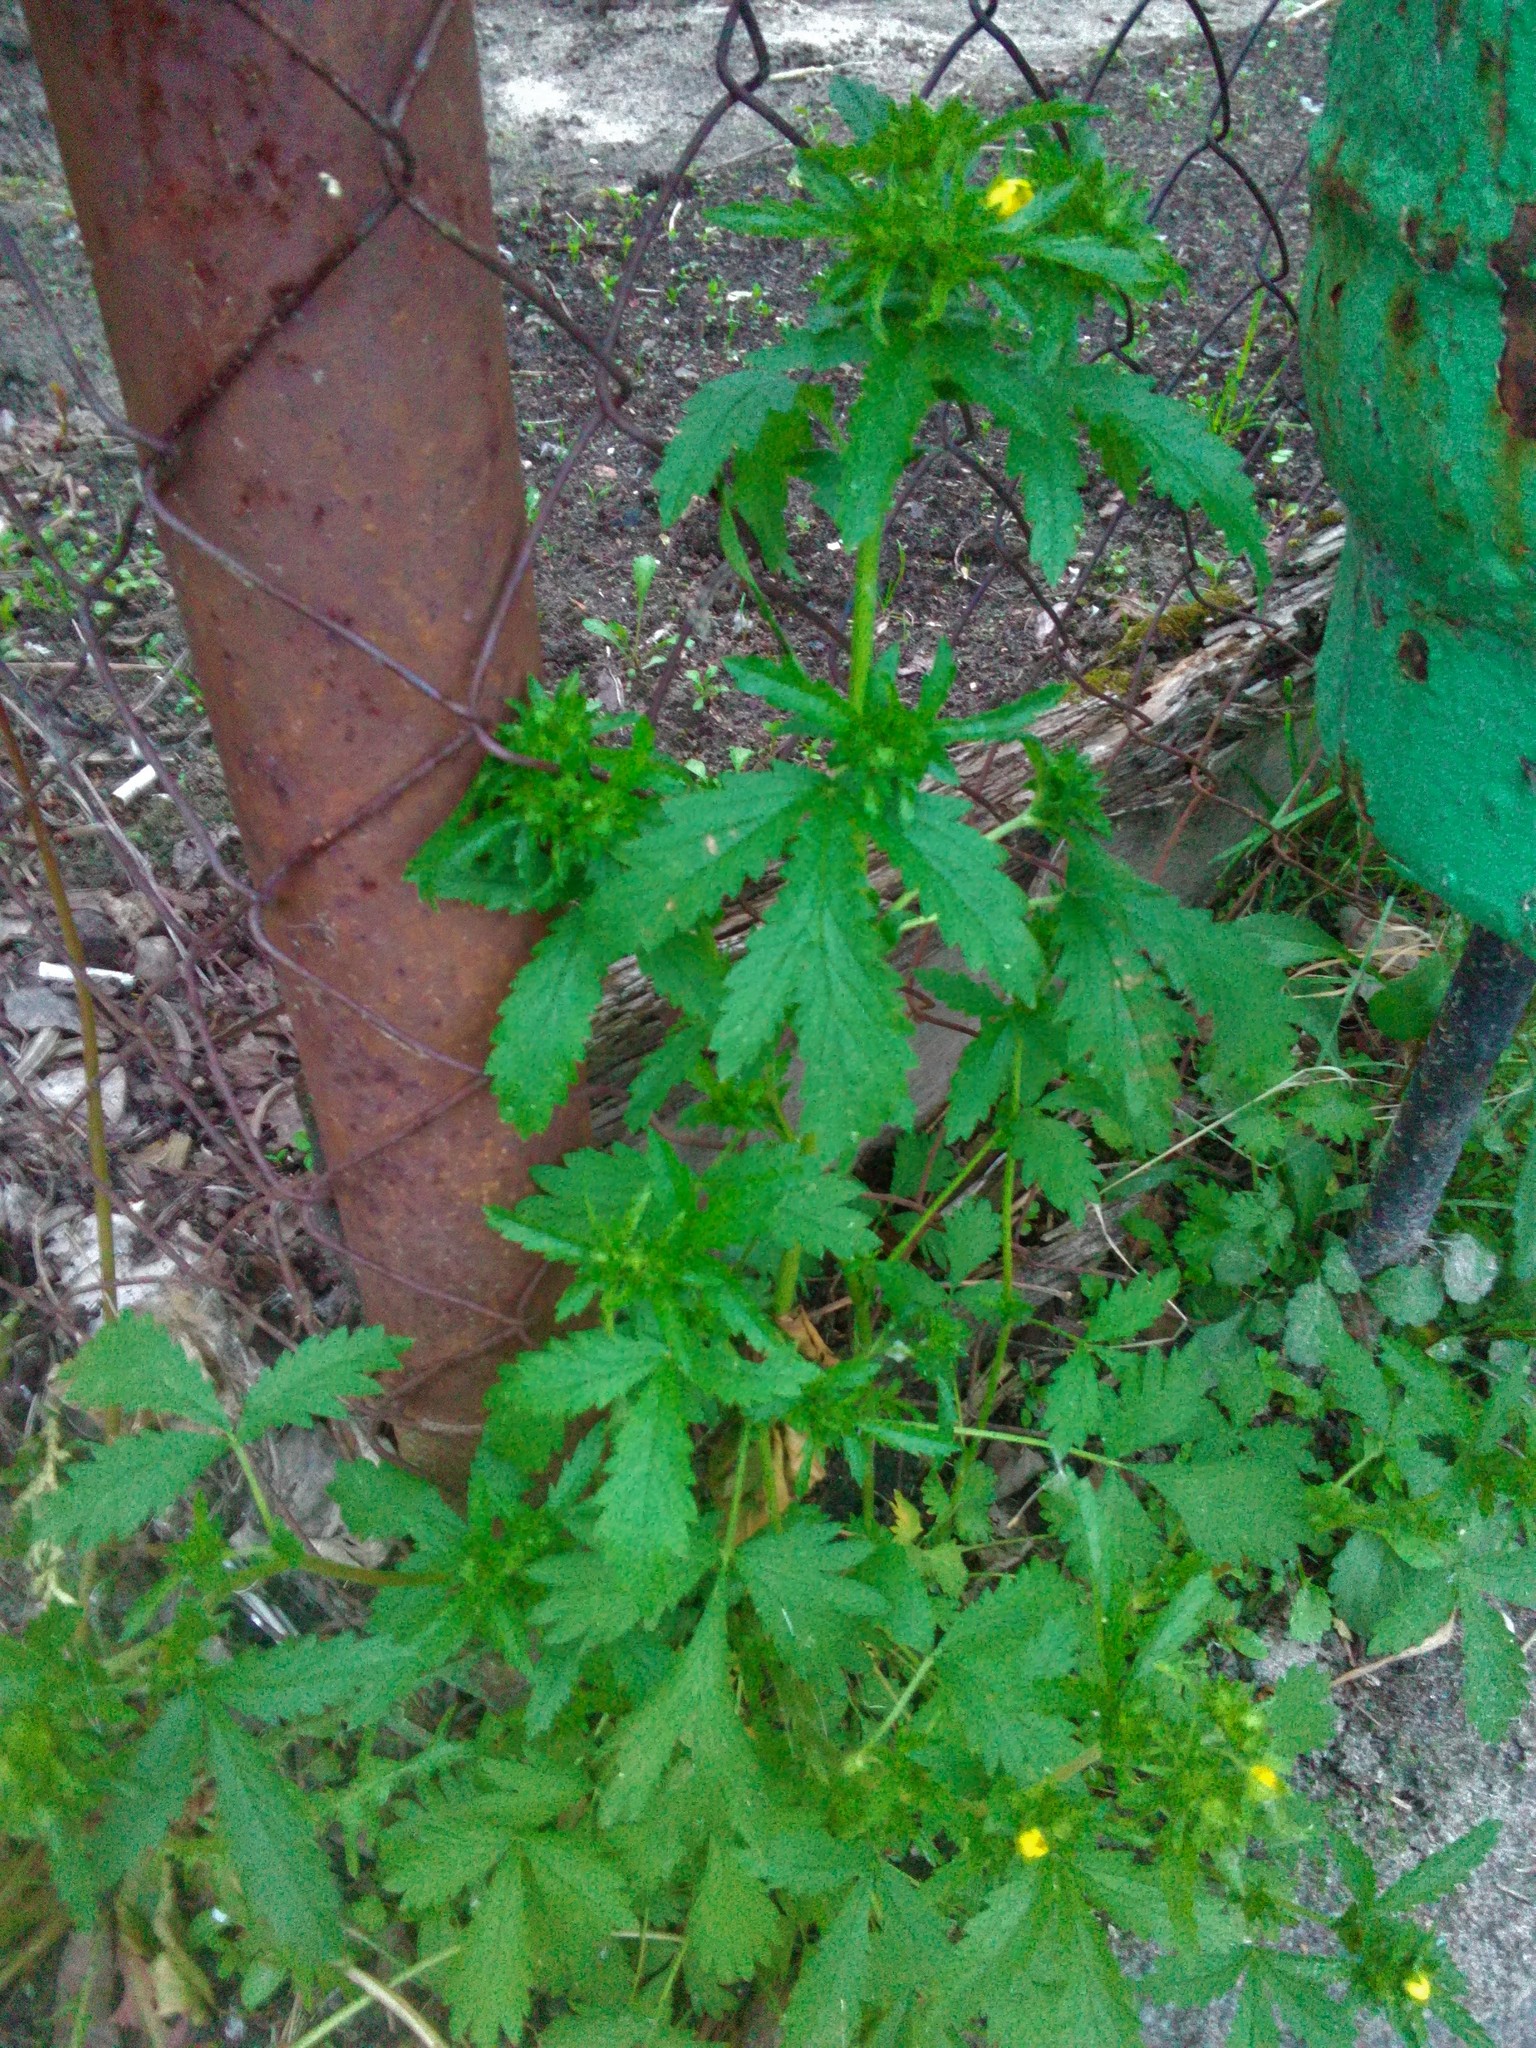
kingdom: Plantae
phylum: Tracheophyta
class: Magnoliopsida
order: Rosales
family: Rosaceae
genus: Potentilla
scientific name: Potentilla norvegica
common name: Ternate-leaved cinquefoil
